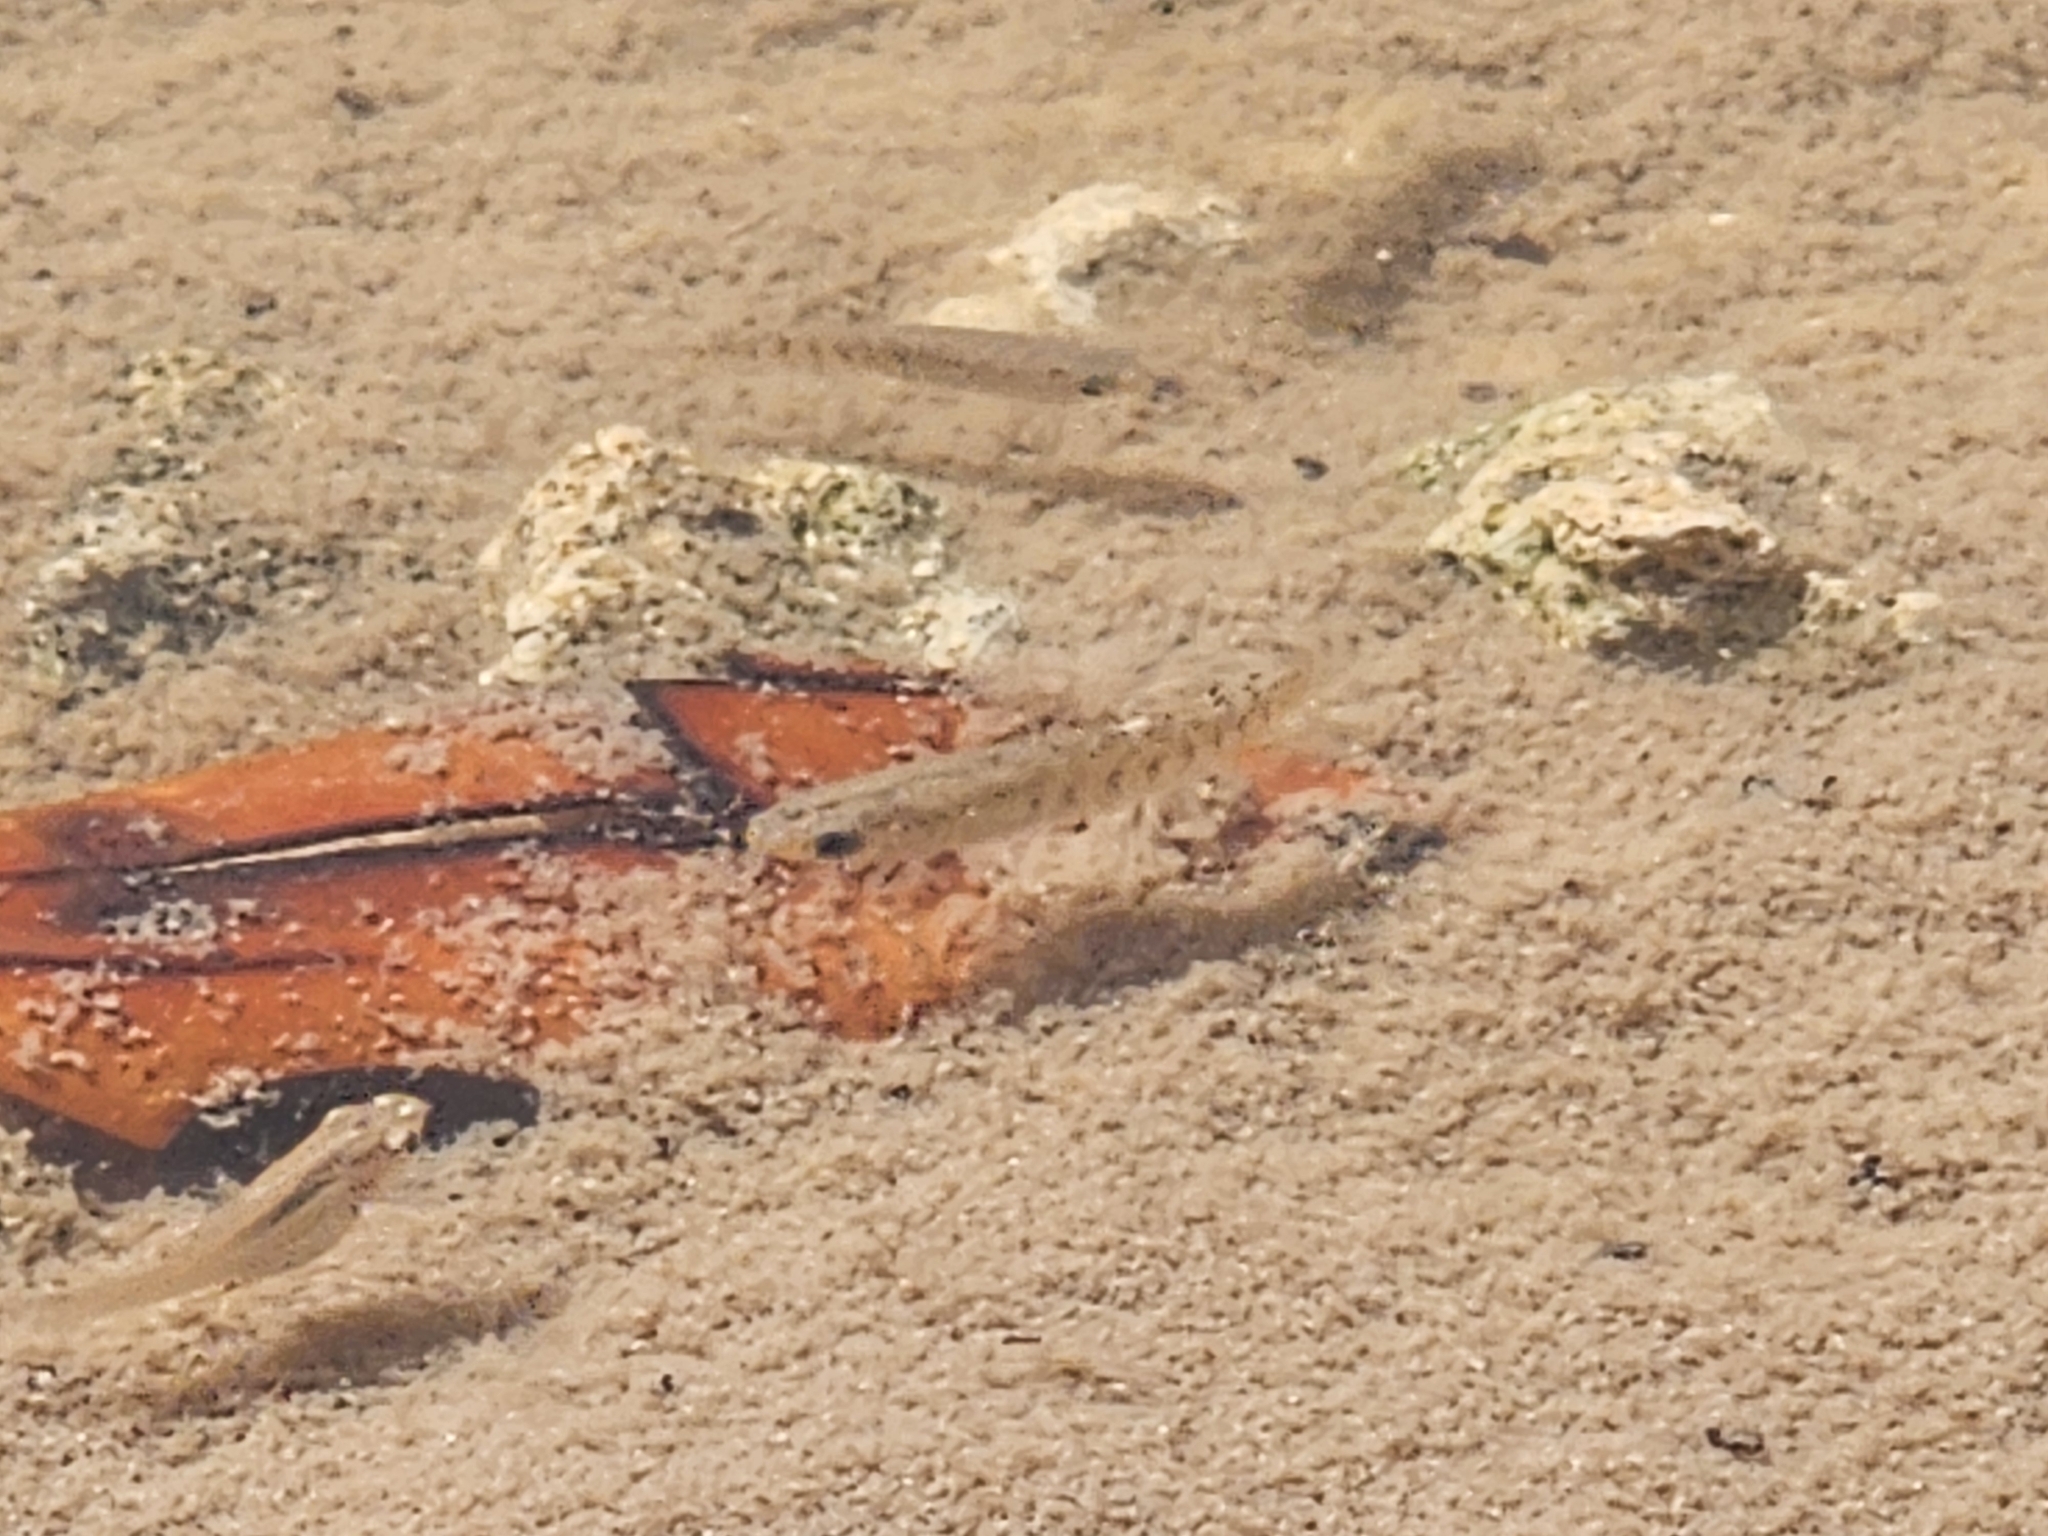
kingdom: Animalia
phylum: Chordata
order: Cyprinodontiformes
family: Fundulidae
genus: Fundulus
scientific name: Fundulus confluentus
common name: Killifish
